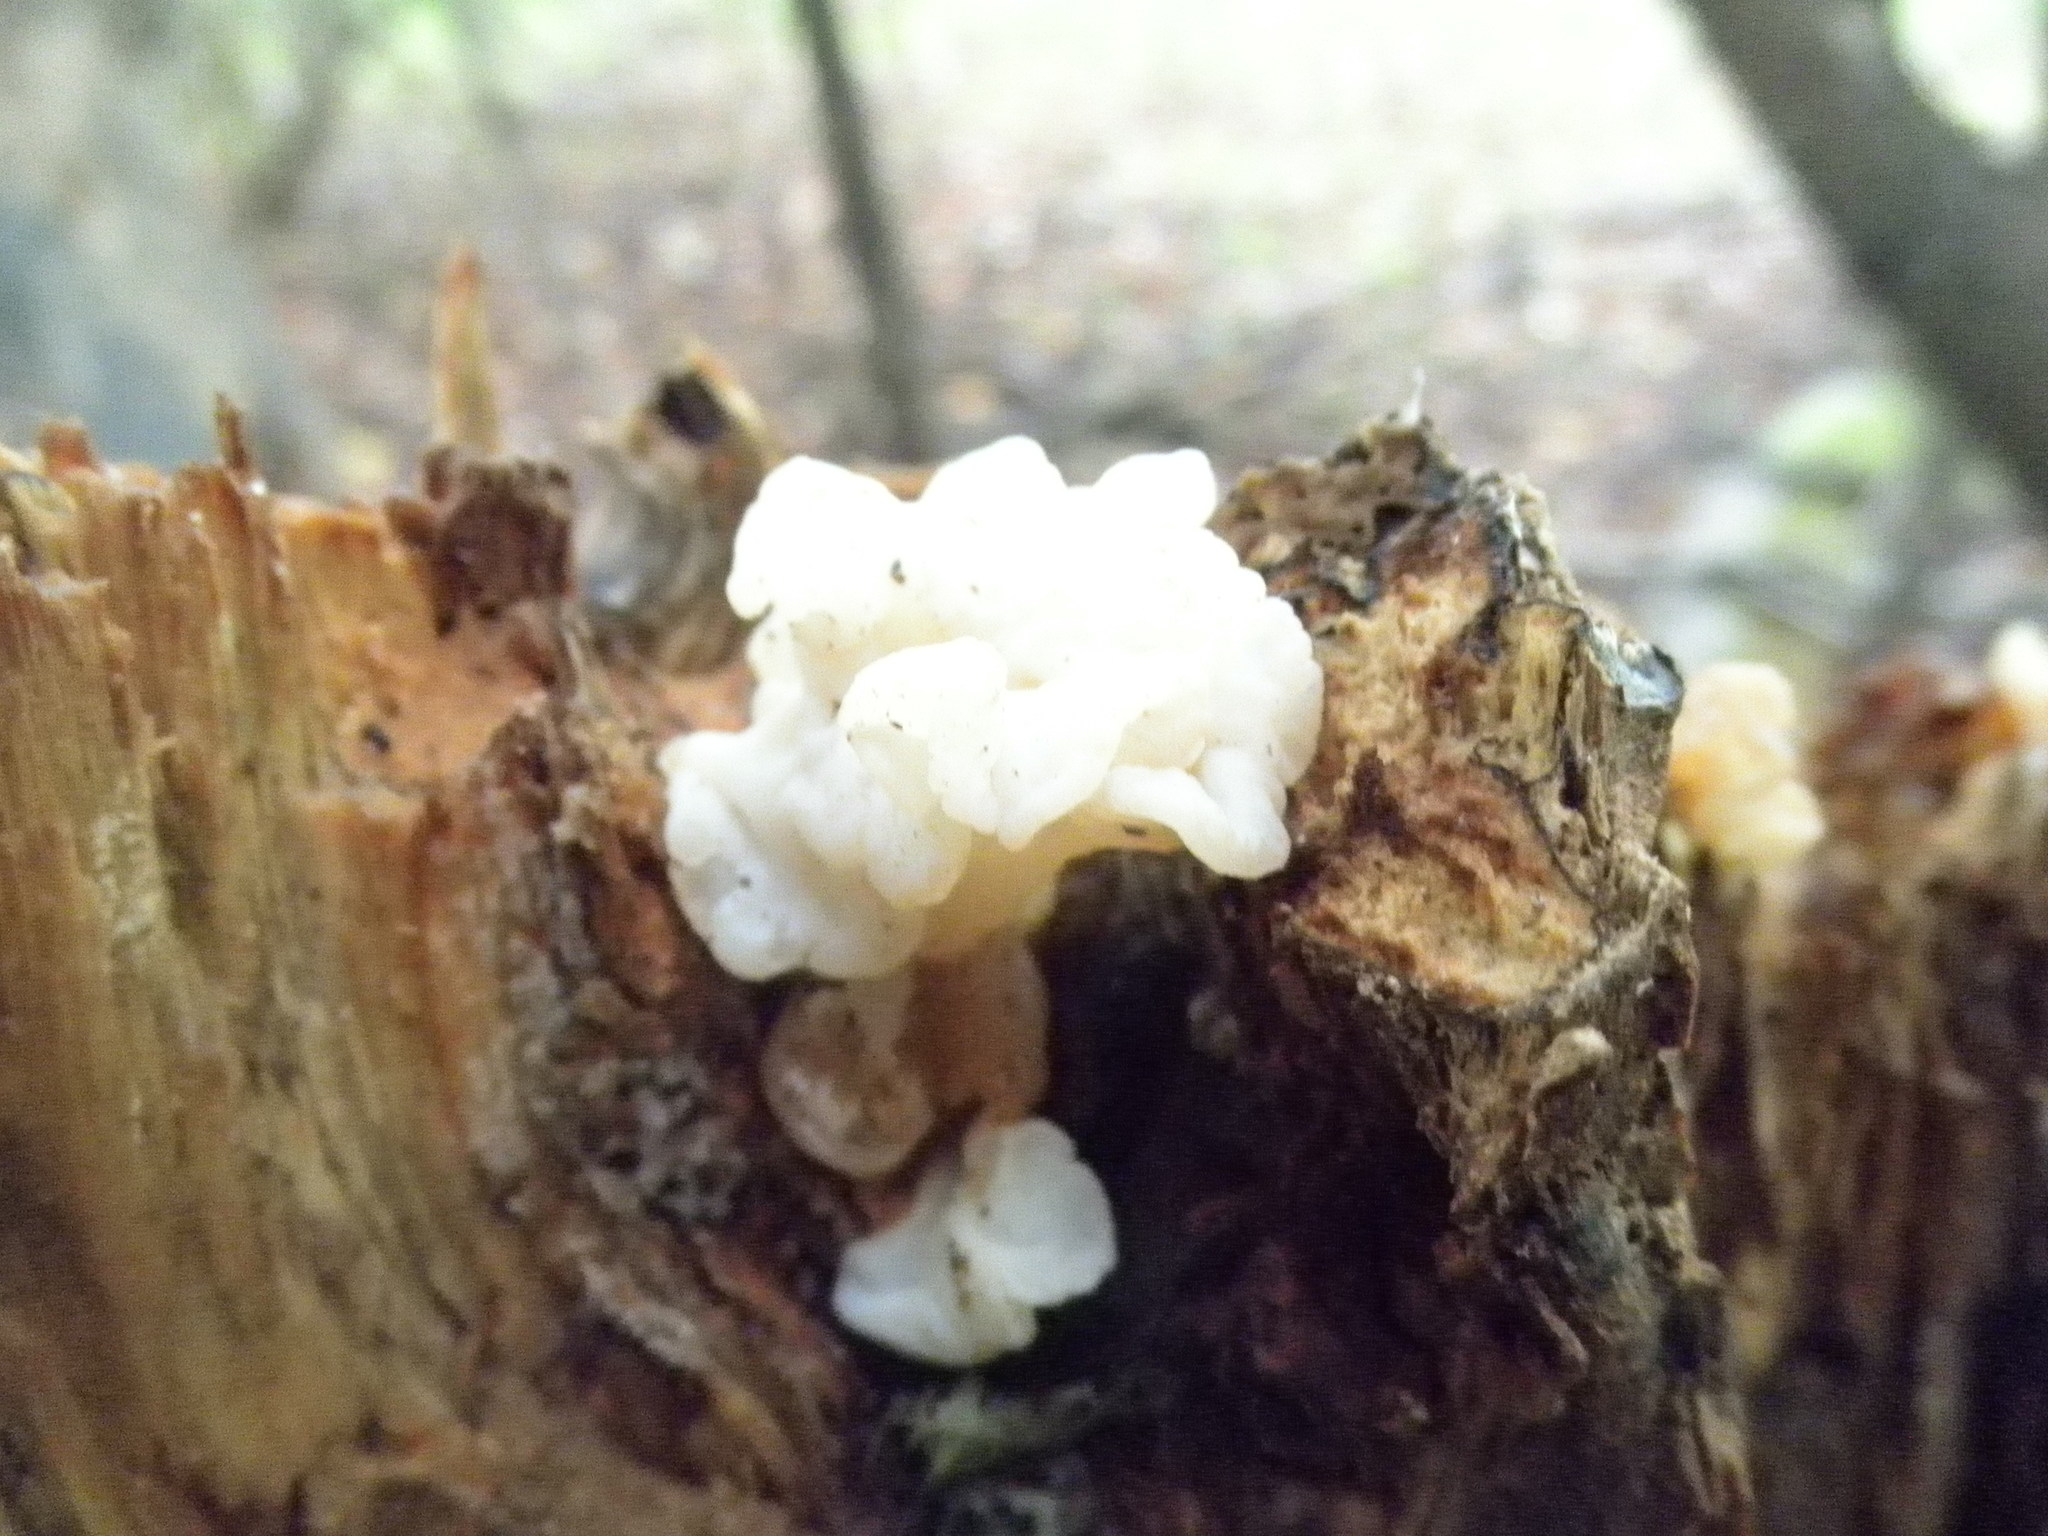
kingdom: Fungi
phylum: Basidiomycota
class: Agaricomycetes
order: Auriculariales
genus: Ductifera
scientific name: Ductifera pululahuana
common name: White jelly fungus
